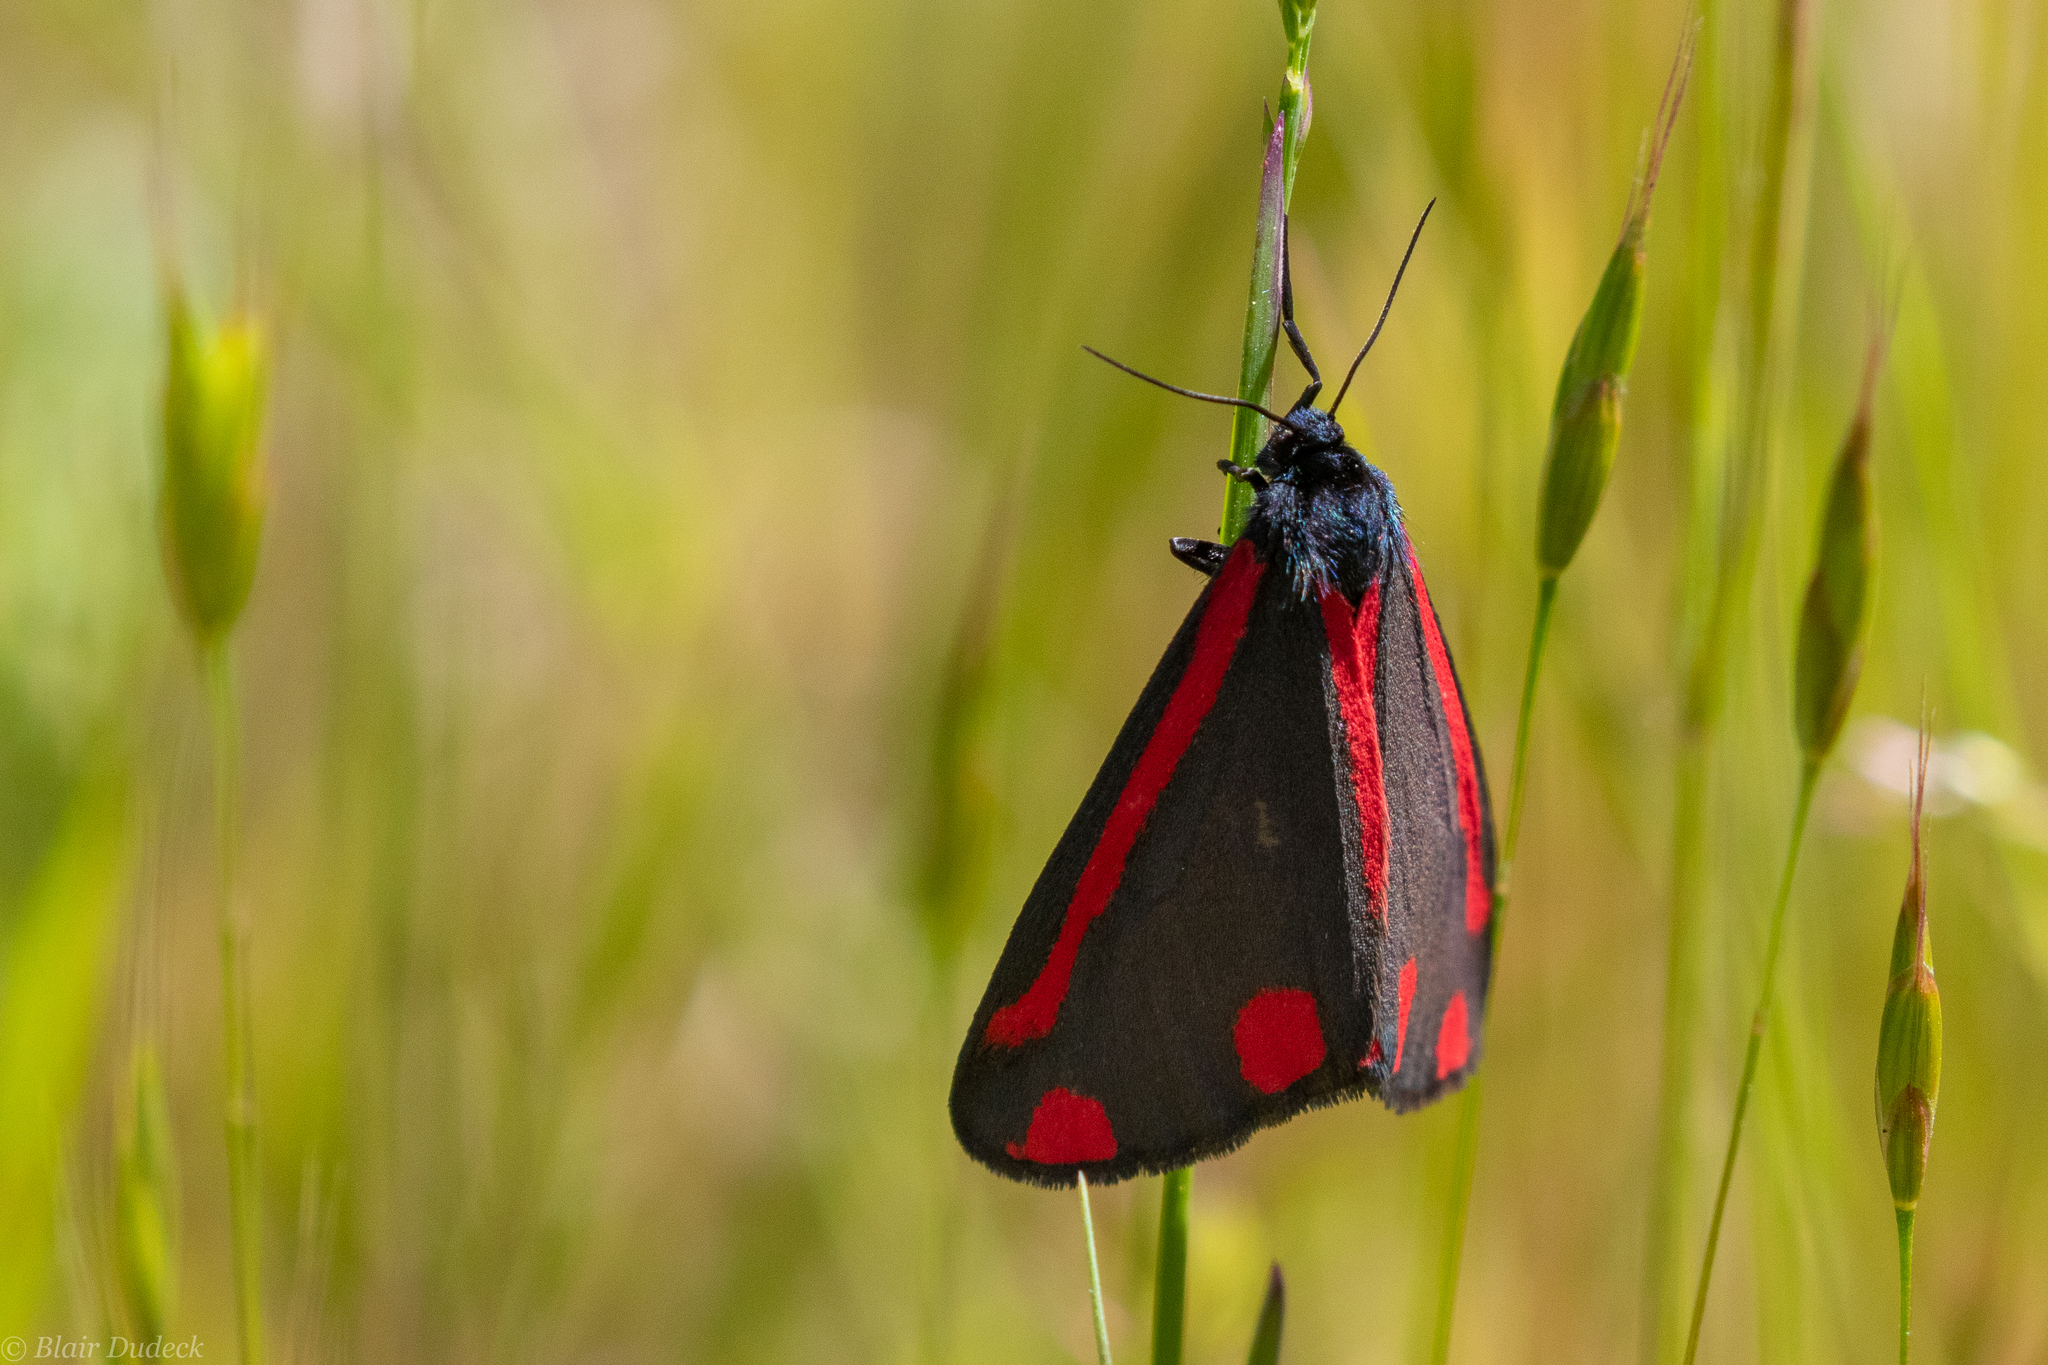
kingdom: Animalia
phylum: Arthropoda
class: Insecta
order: Lepidoptera
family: Erebidae
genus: Tyria
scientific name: Tyria jacobaeae
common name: Cinnabar
